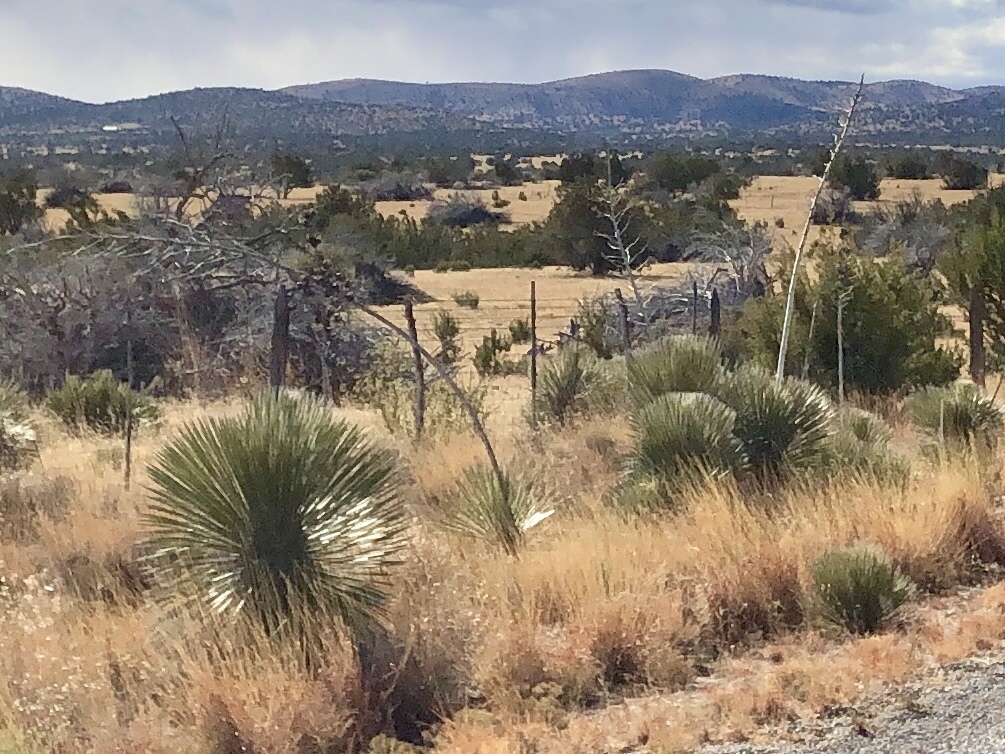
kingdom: Plantae
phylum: Tracheophyta
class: Liliopsida
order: Asparagales
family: Asparagaceae
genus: Yucca
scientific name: Yucca elata
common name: Palmella
